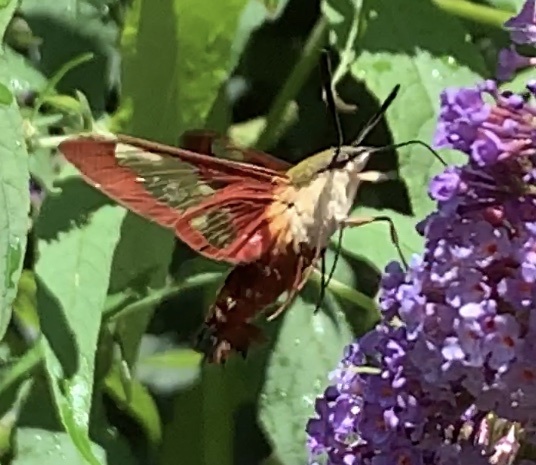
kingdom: Animalia
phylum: Arthropoda
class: Insecta
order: Lepidoptera
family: Sphingidae
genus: Hemaris
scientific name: Hemaris thysbe
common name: Common clear-wing
